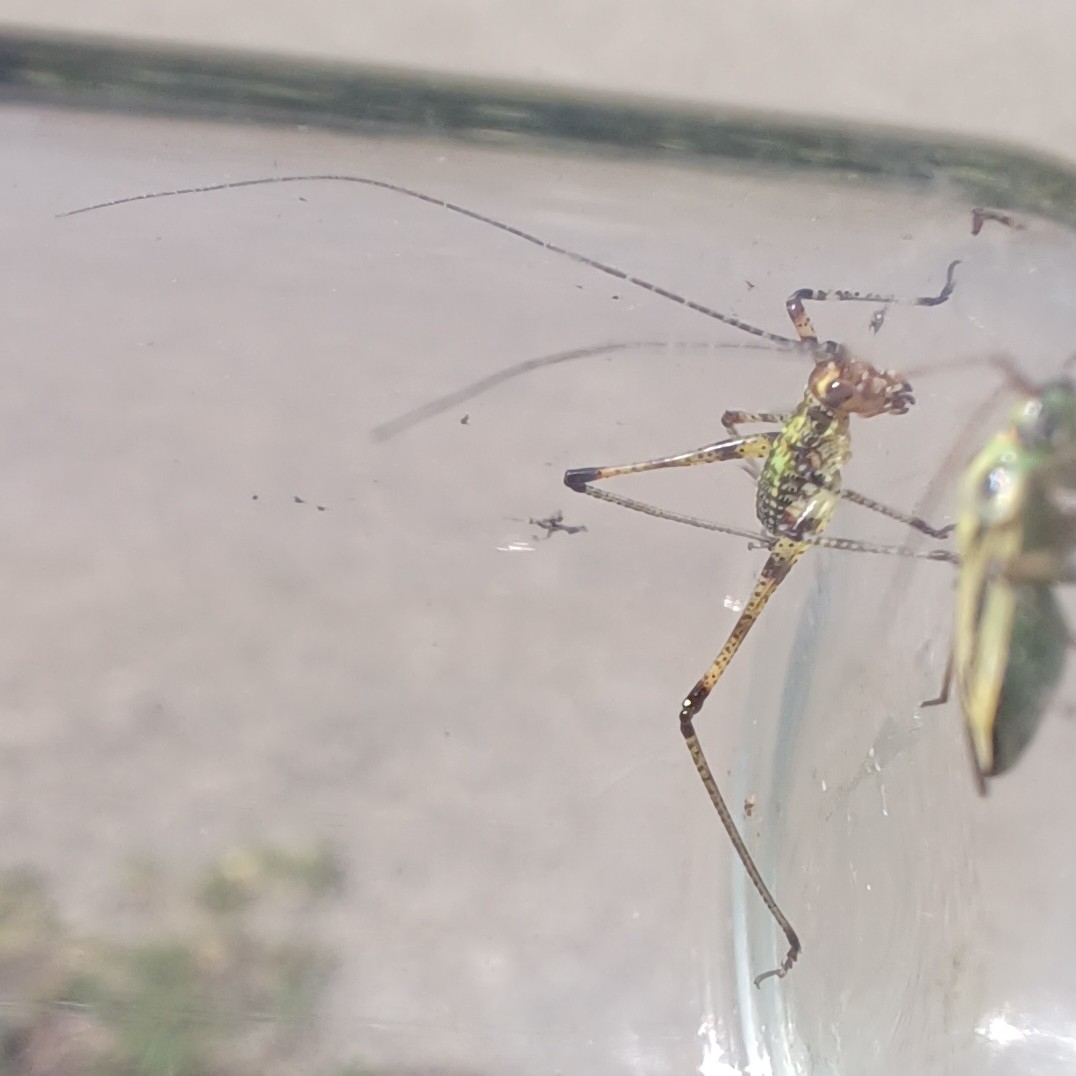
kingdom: Animalia
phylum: Arthropoda
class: Insecta
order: Orthoptera
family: Tettigoniidae
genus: Phaneroptera
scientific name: Phaneroptera nana
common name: Southern sickle bush-cricket
